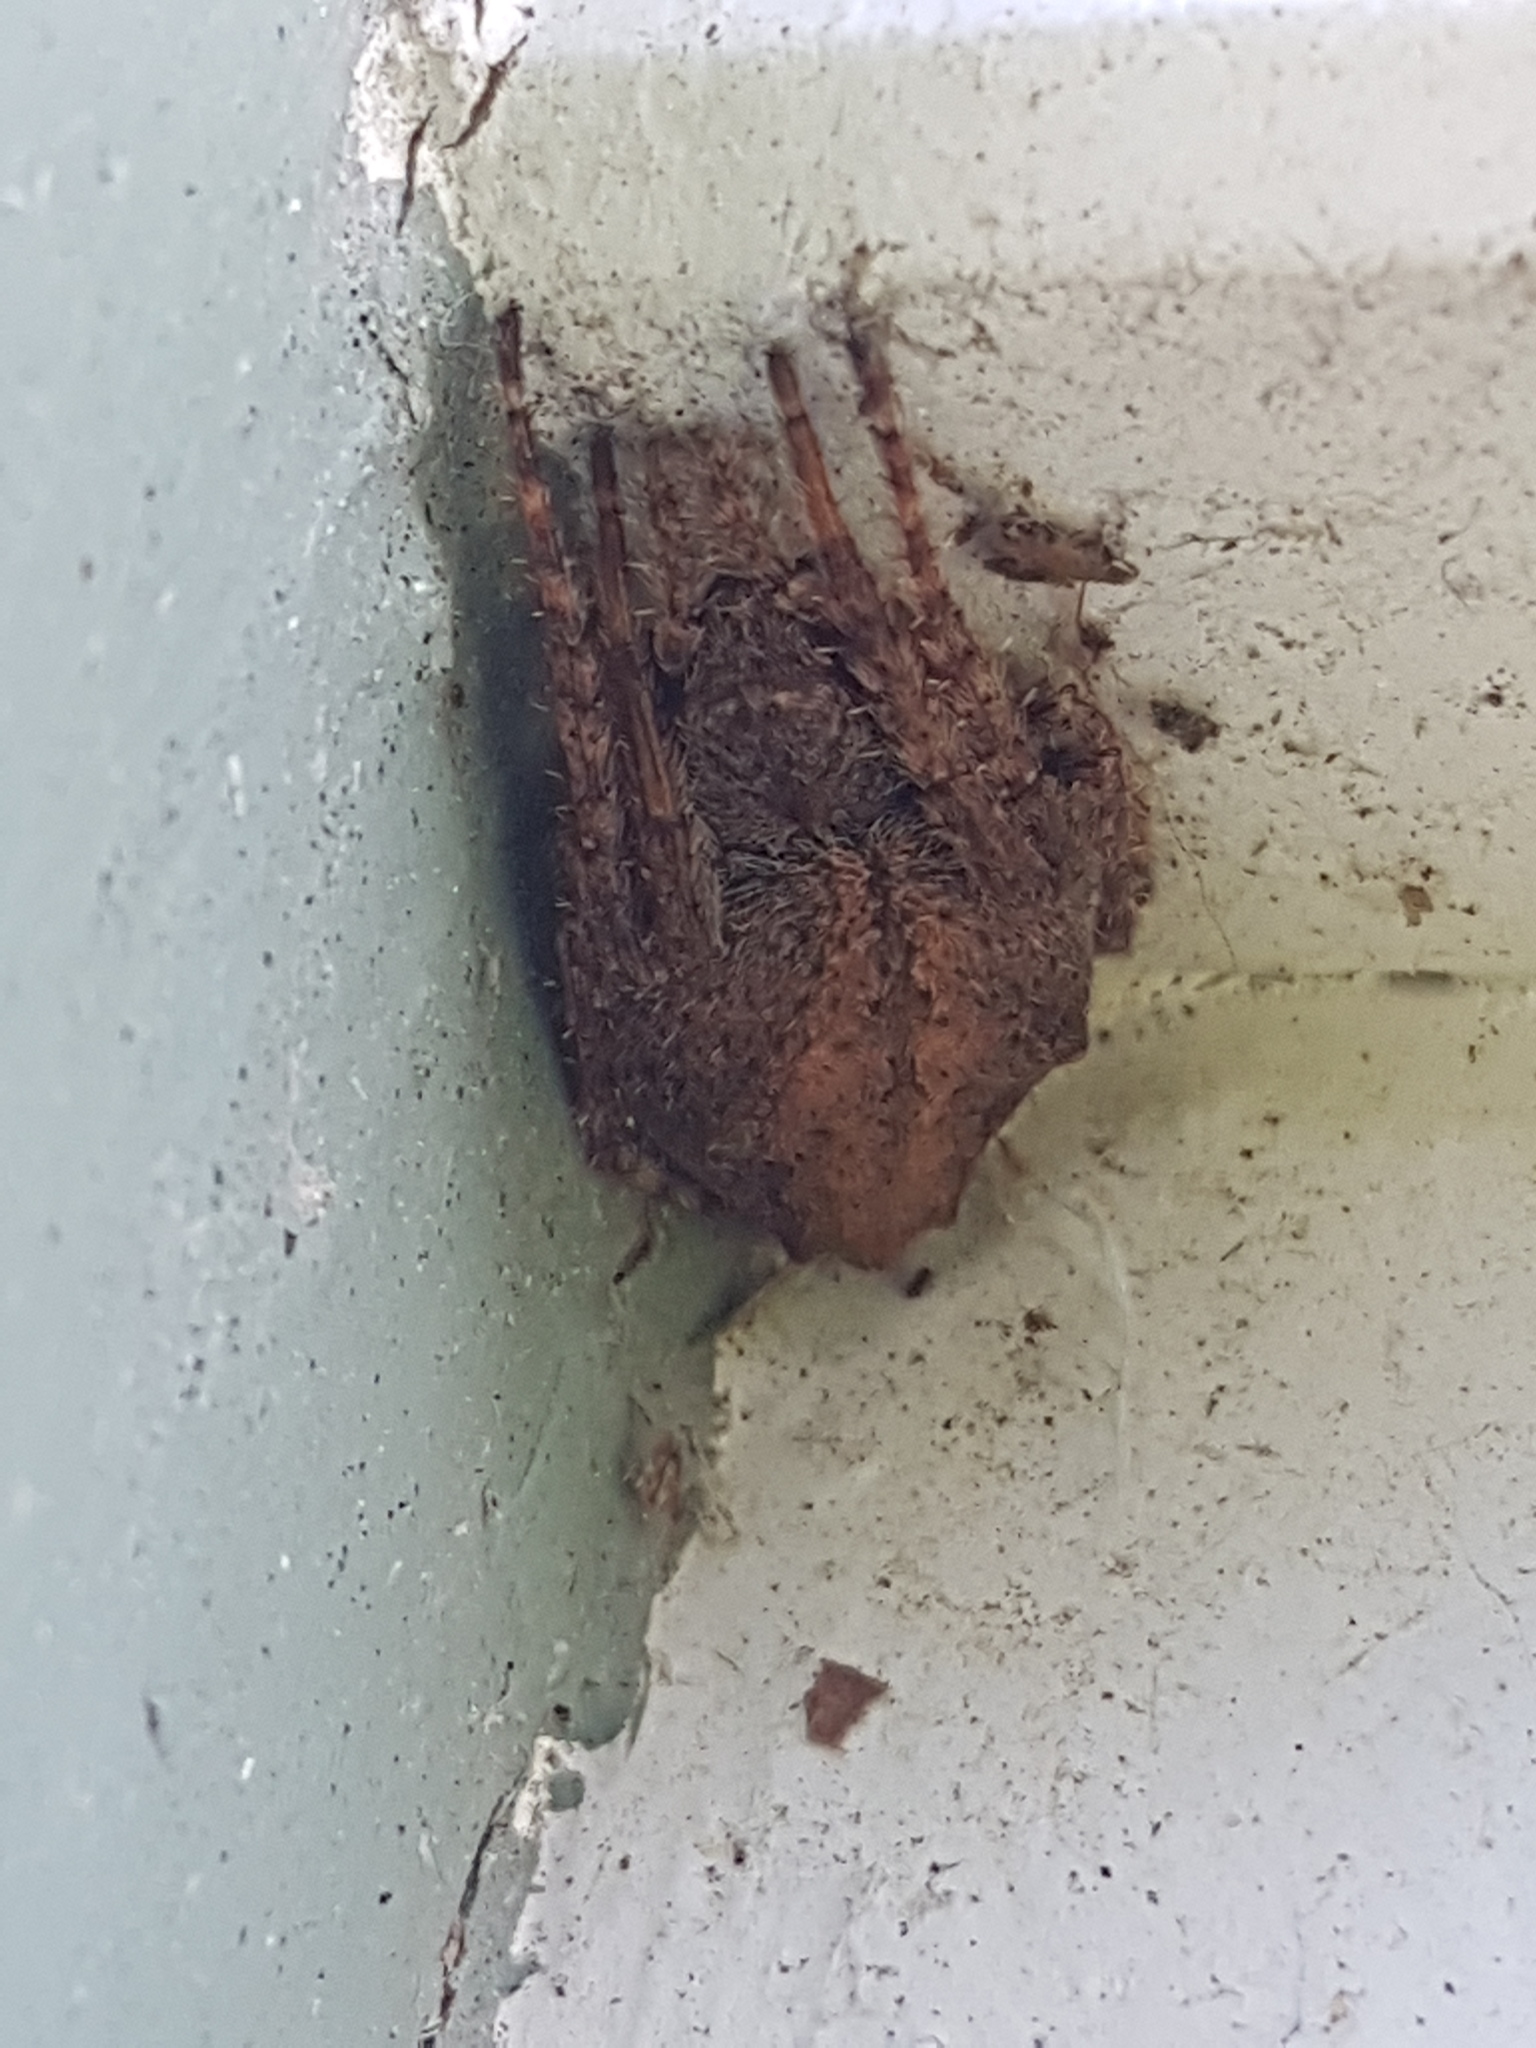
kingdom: Animalia
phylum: Arthropoda
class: Arachnida
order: Araneae
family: Araneidae
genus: Eriophora
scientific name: Eriophora pustulosa
